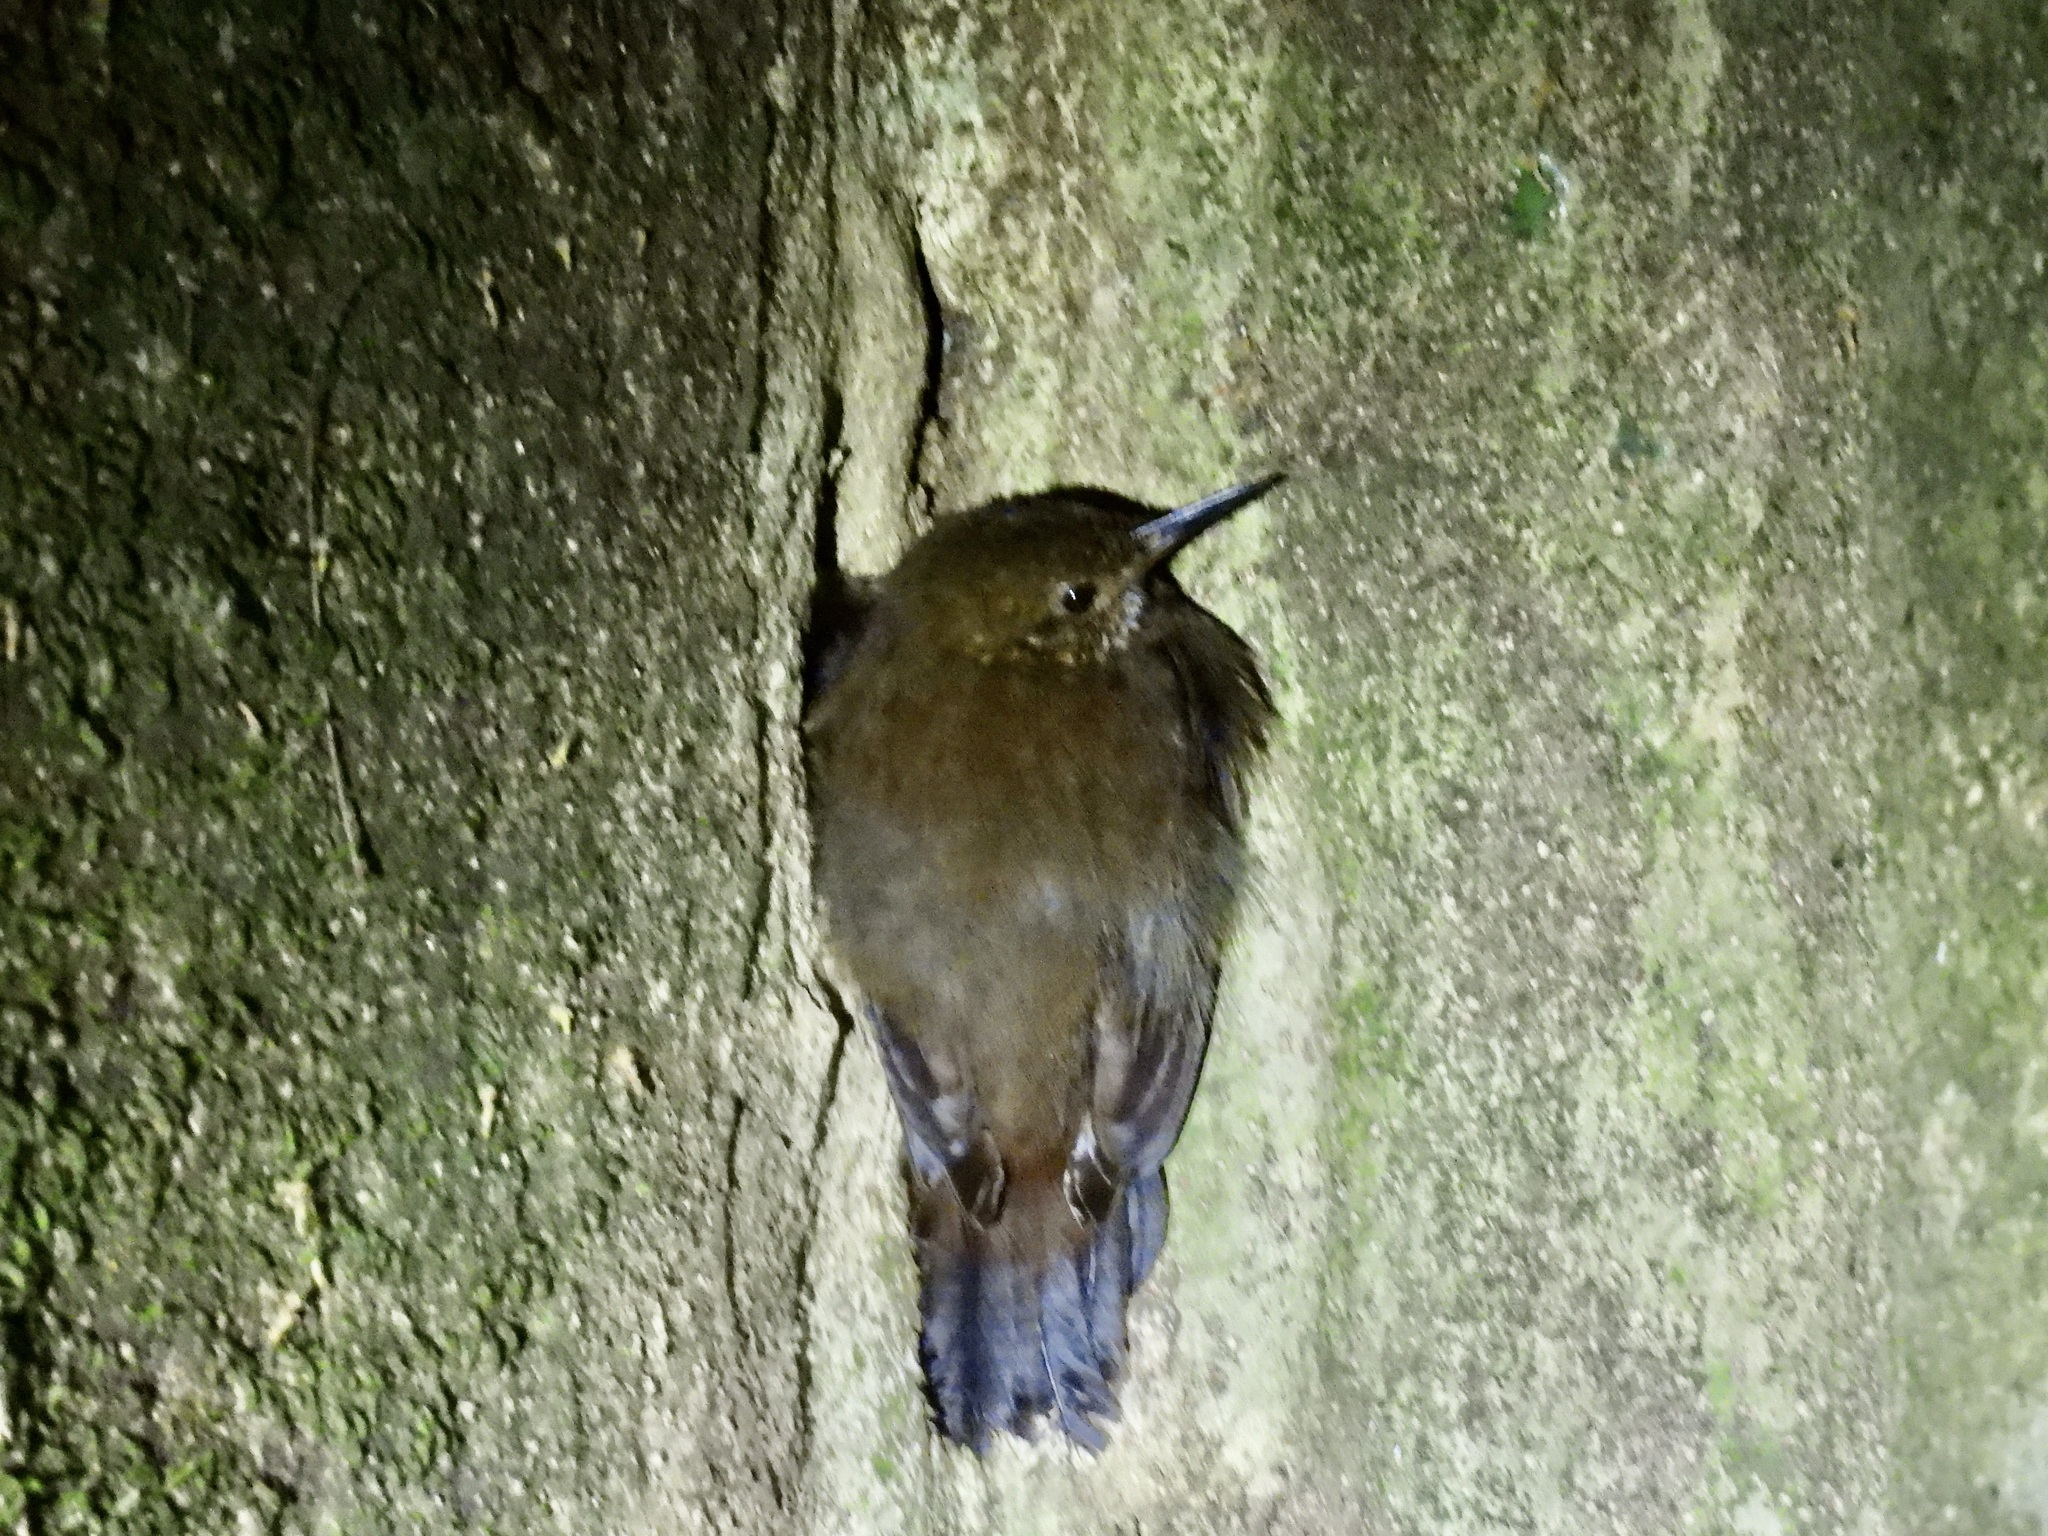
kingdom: Animalia
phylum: Chordata
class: Aves
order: Passeriformes
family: Furnariidae
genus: Sclerurus
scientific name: Sclerurus guatemalensis
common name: Scaly-throated leaftosser
